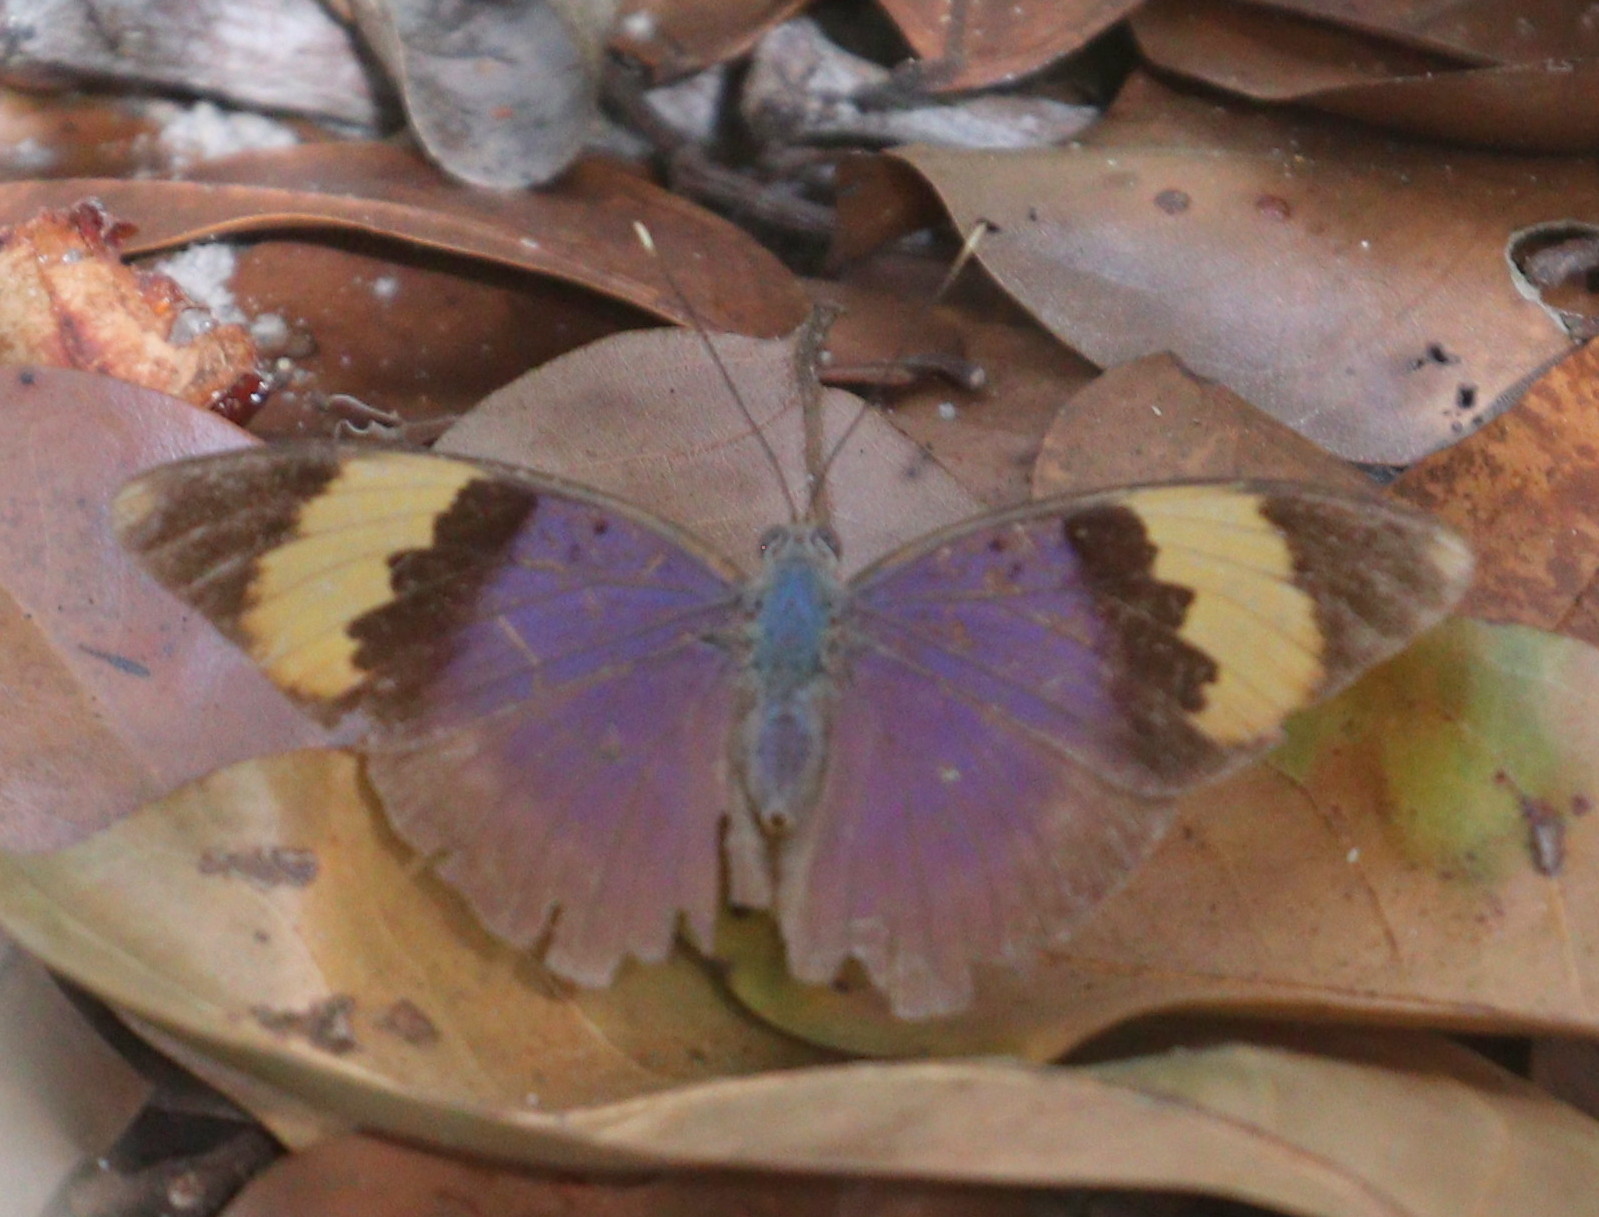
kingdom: Animalia
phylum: Arthropoda
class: Insecta
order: Lepidoptera
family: Nymphalidae
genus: Euphaedra
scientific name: Euphaedra neophron
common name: Gold-banded forester
